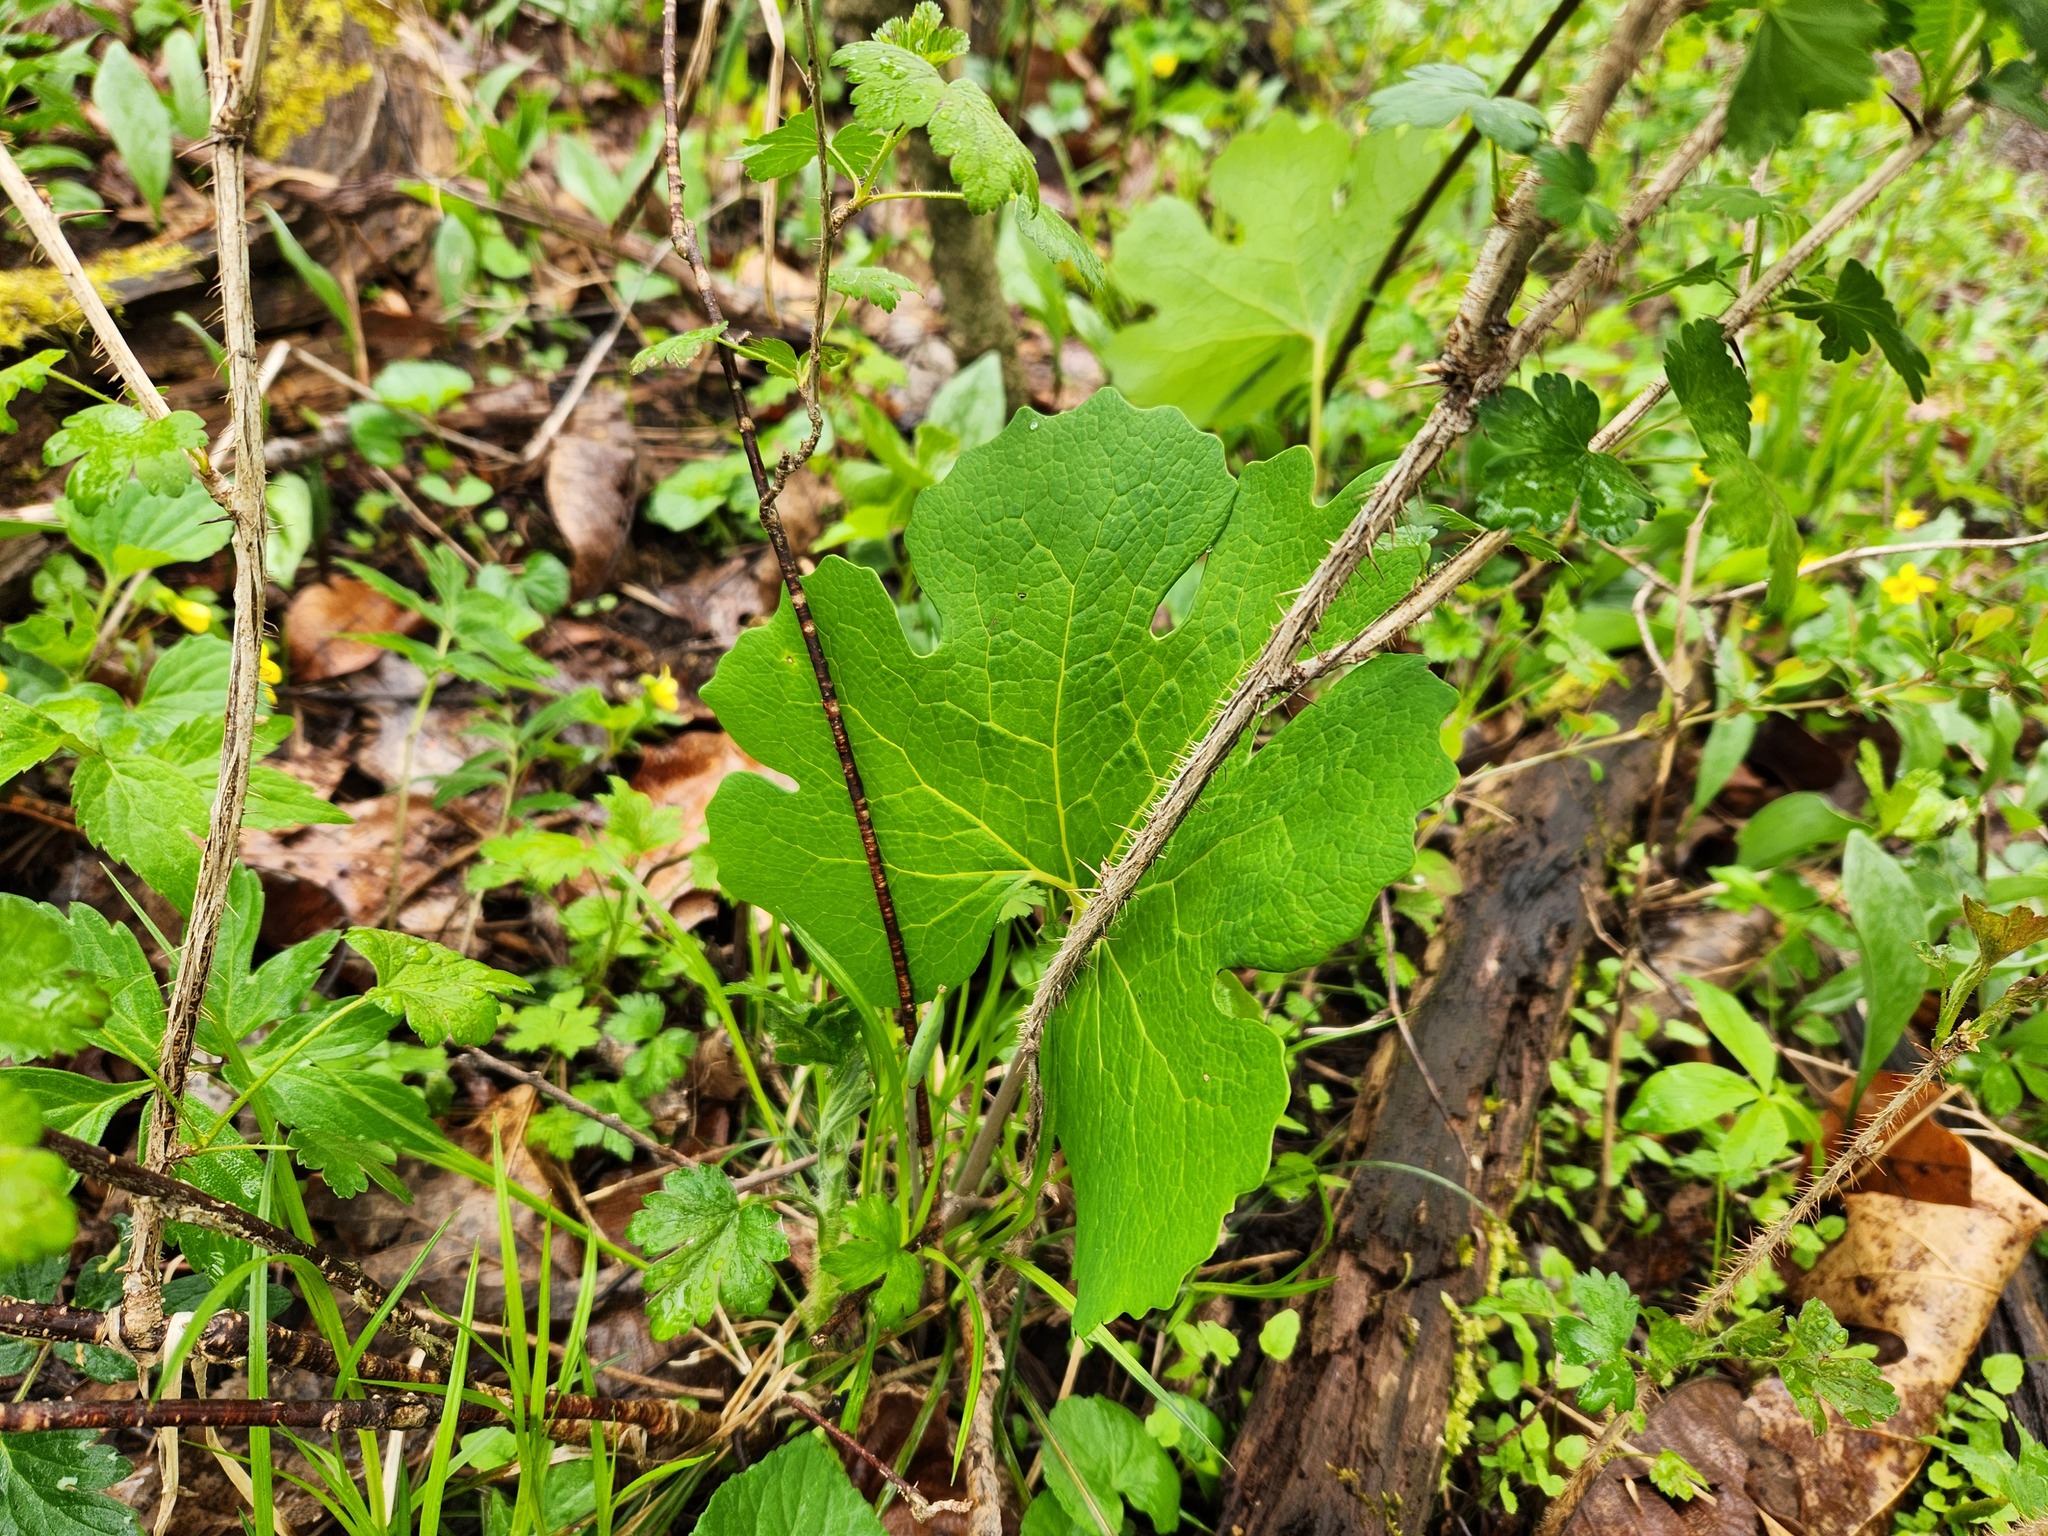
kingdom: Plantae
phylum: Tracheophyta
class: Magnoliopsida
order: Ranunculales
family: Papaveraceae
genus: Sanguinaria
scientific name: Sanguinaria canadensis
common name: Bloodroot
